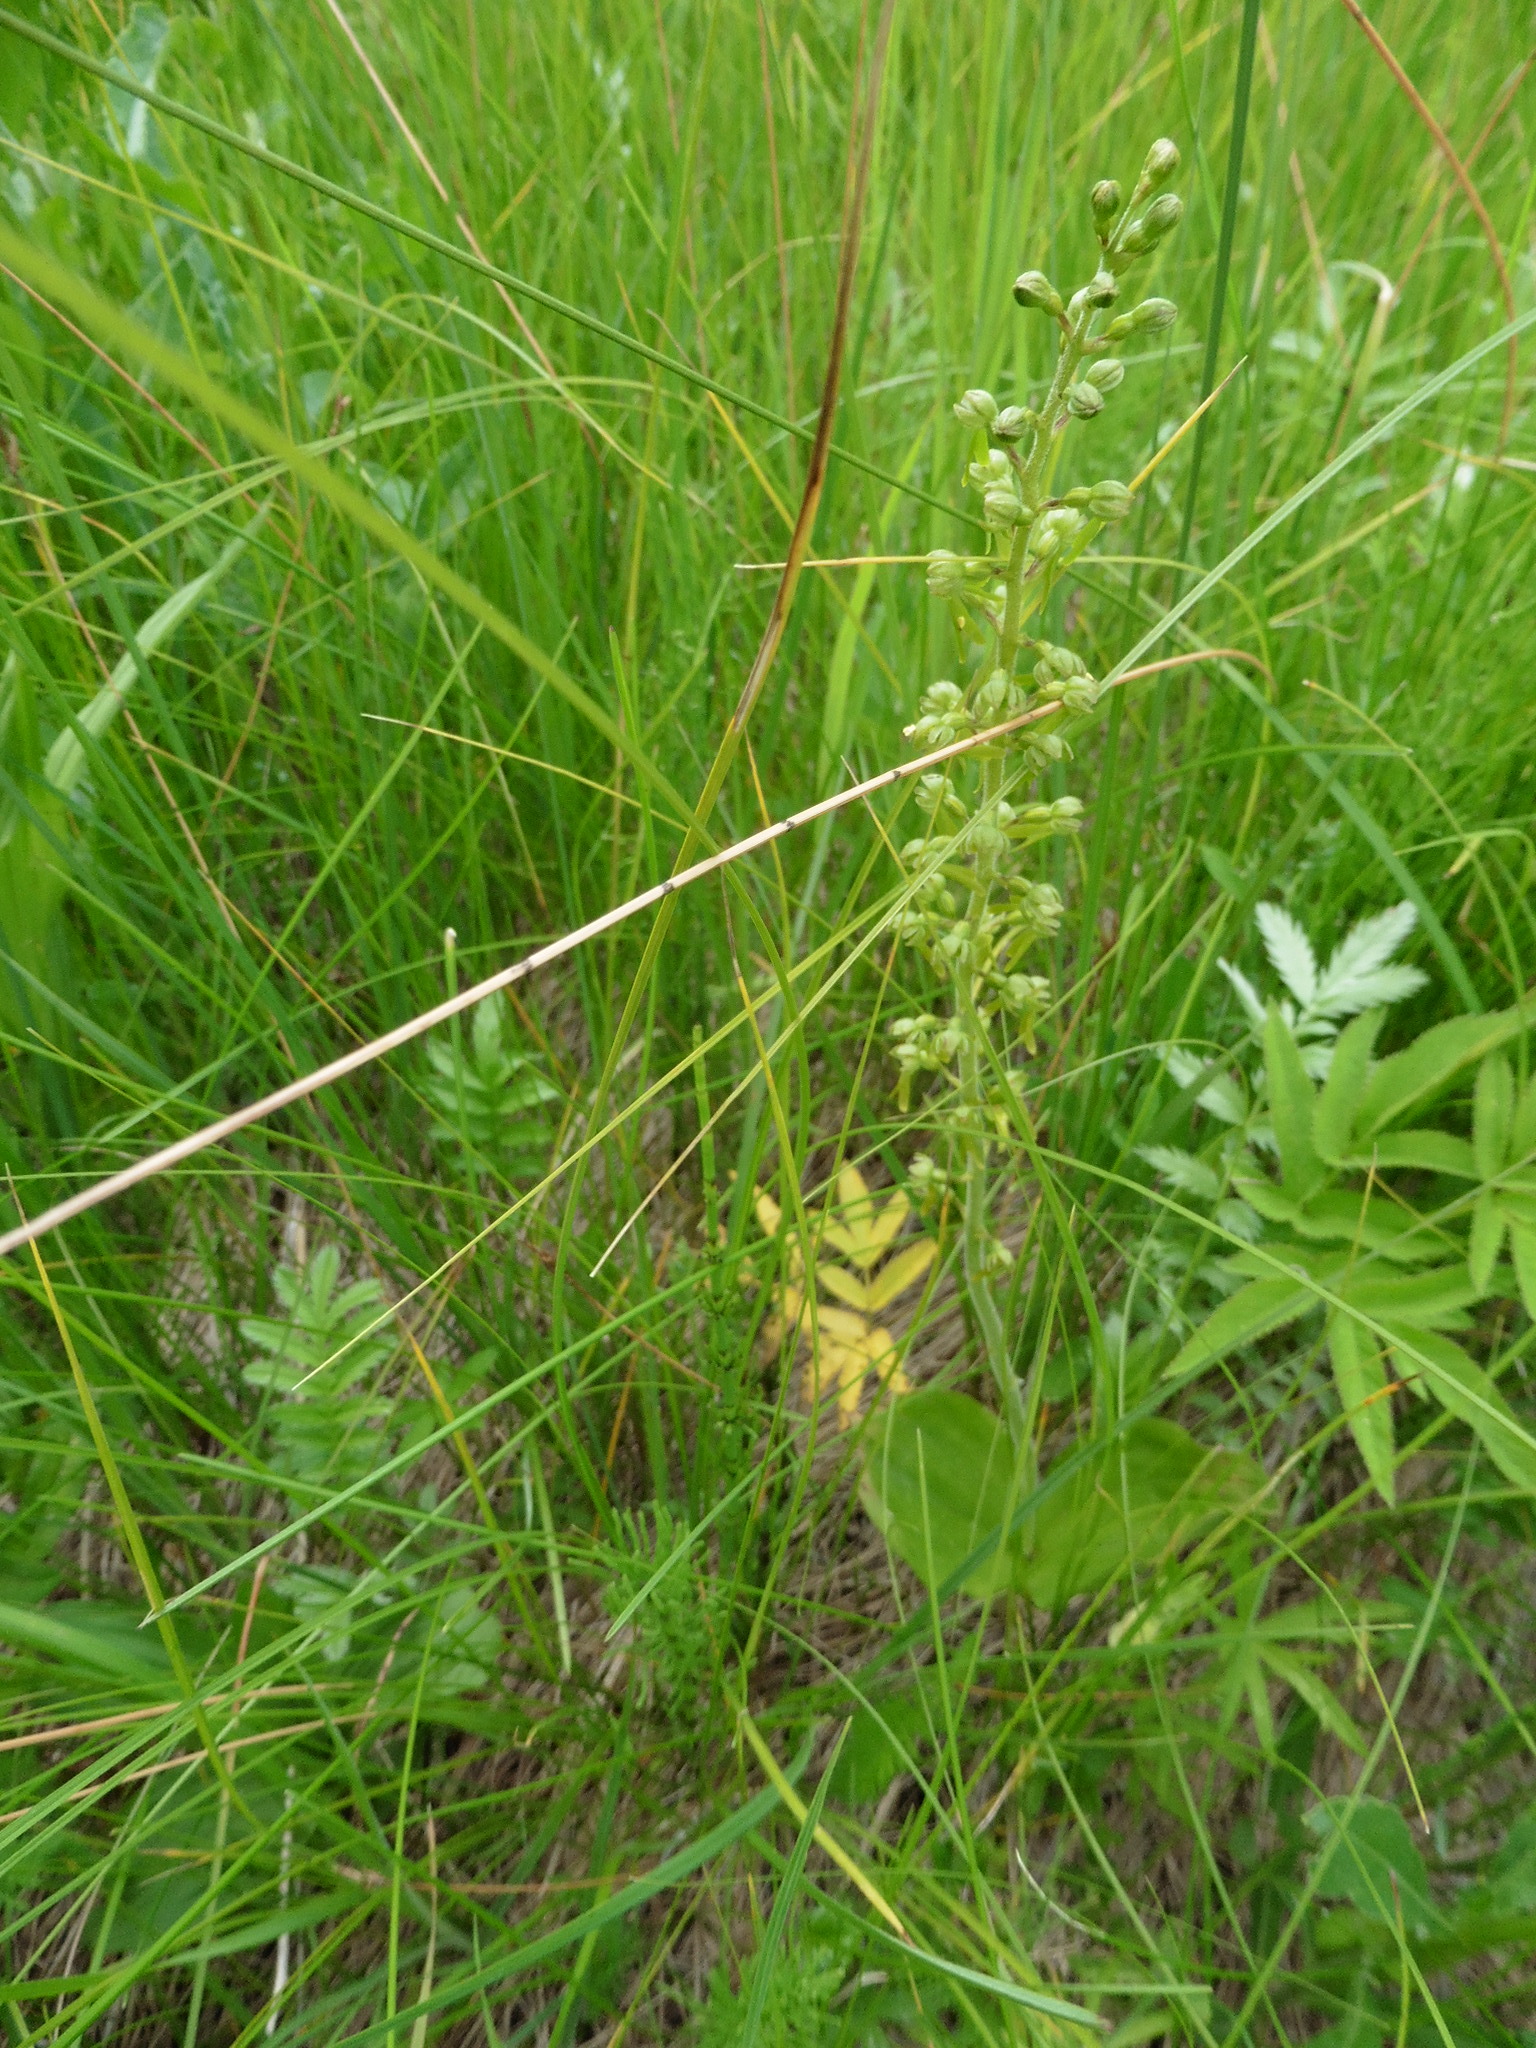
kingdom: Plantae
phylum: Tracheophyta
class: Liliopsida
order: Asparagales
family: Orchidaceae
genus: Neottia
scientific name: Neottia ovata
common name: Common twayblade
